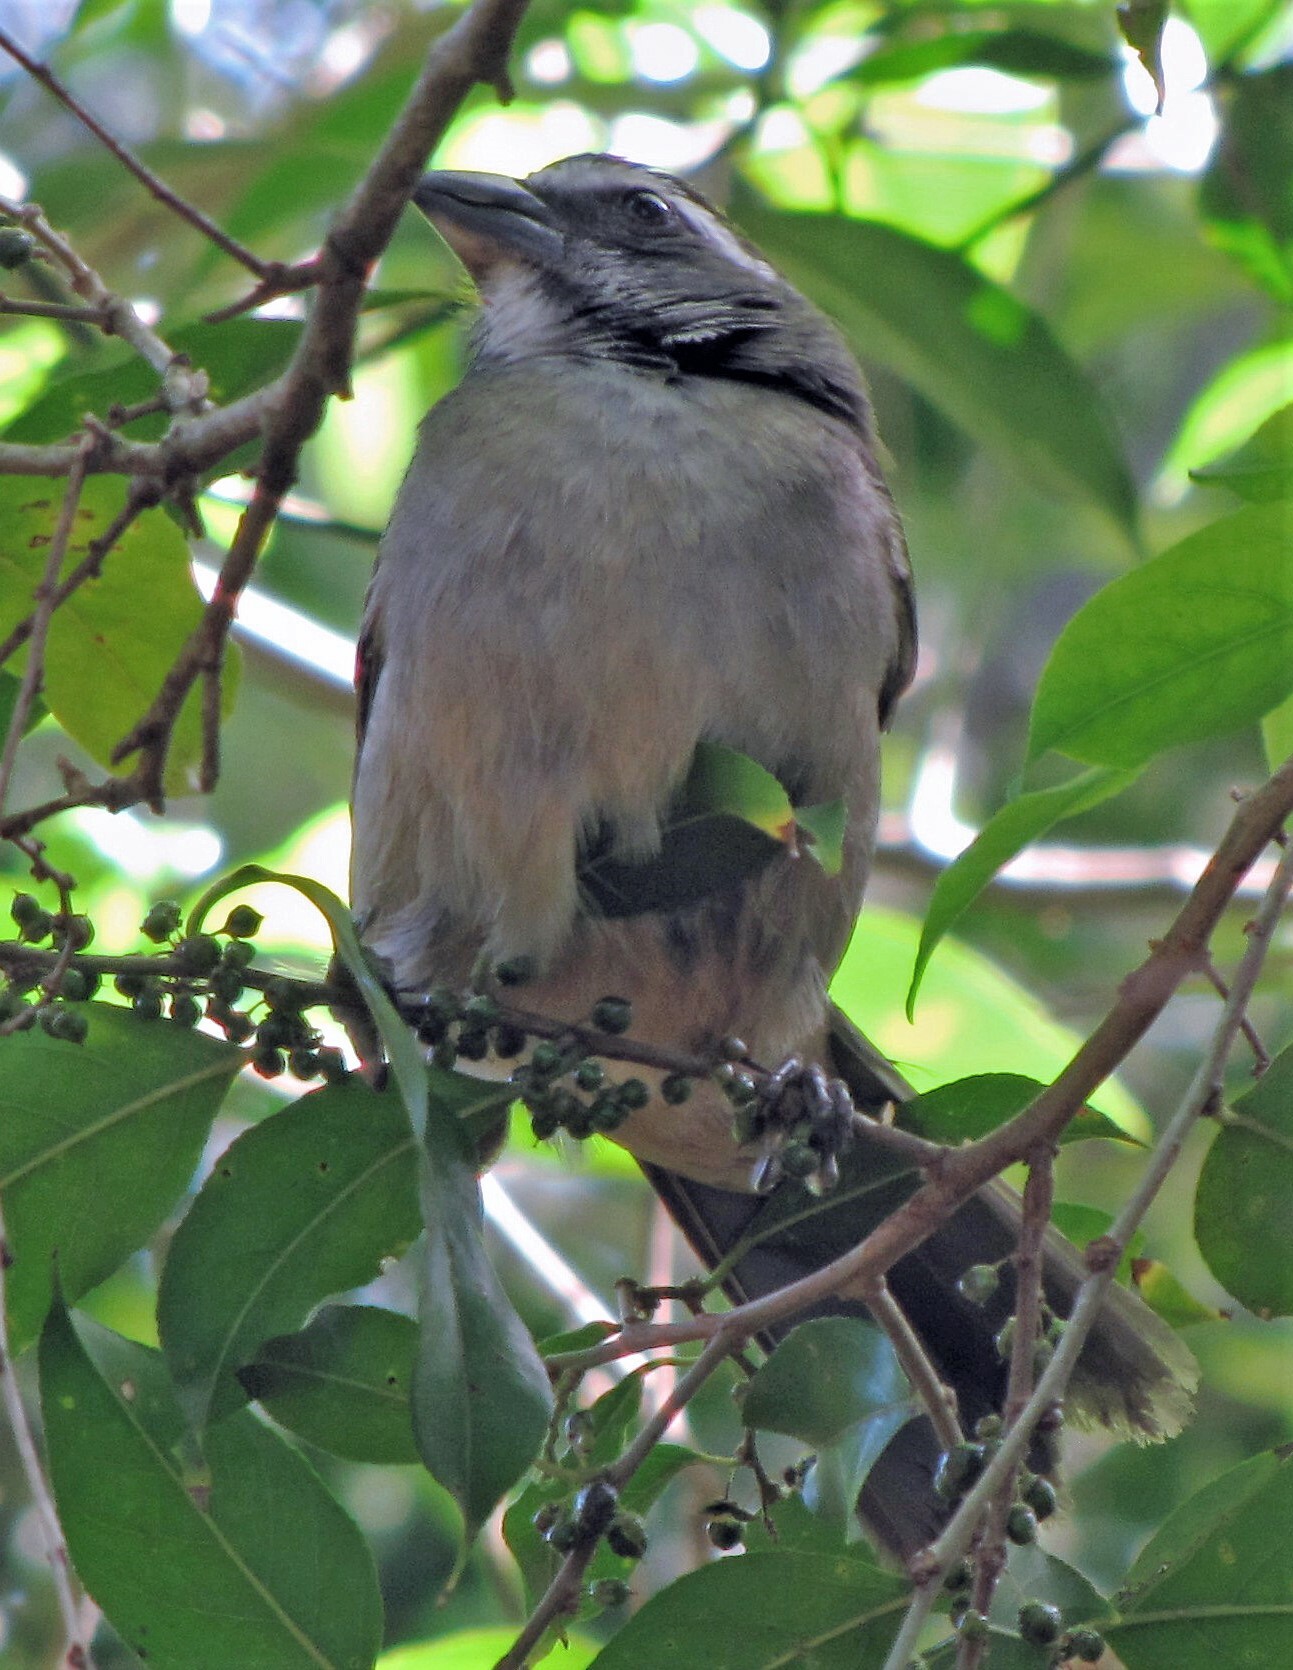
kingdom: Animalia
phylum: Chordata
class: Aves
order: Passeriformes
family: Thraupidae
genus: Saltator
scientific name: Saltator similis
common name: Green-winged saltator
